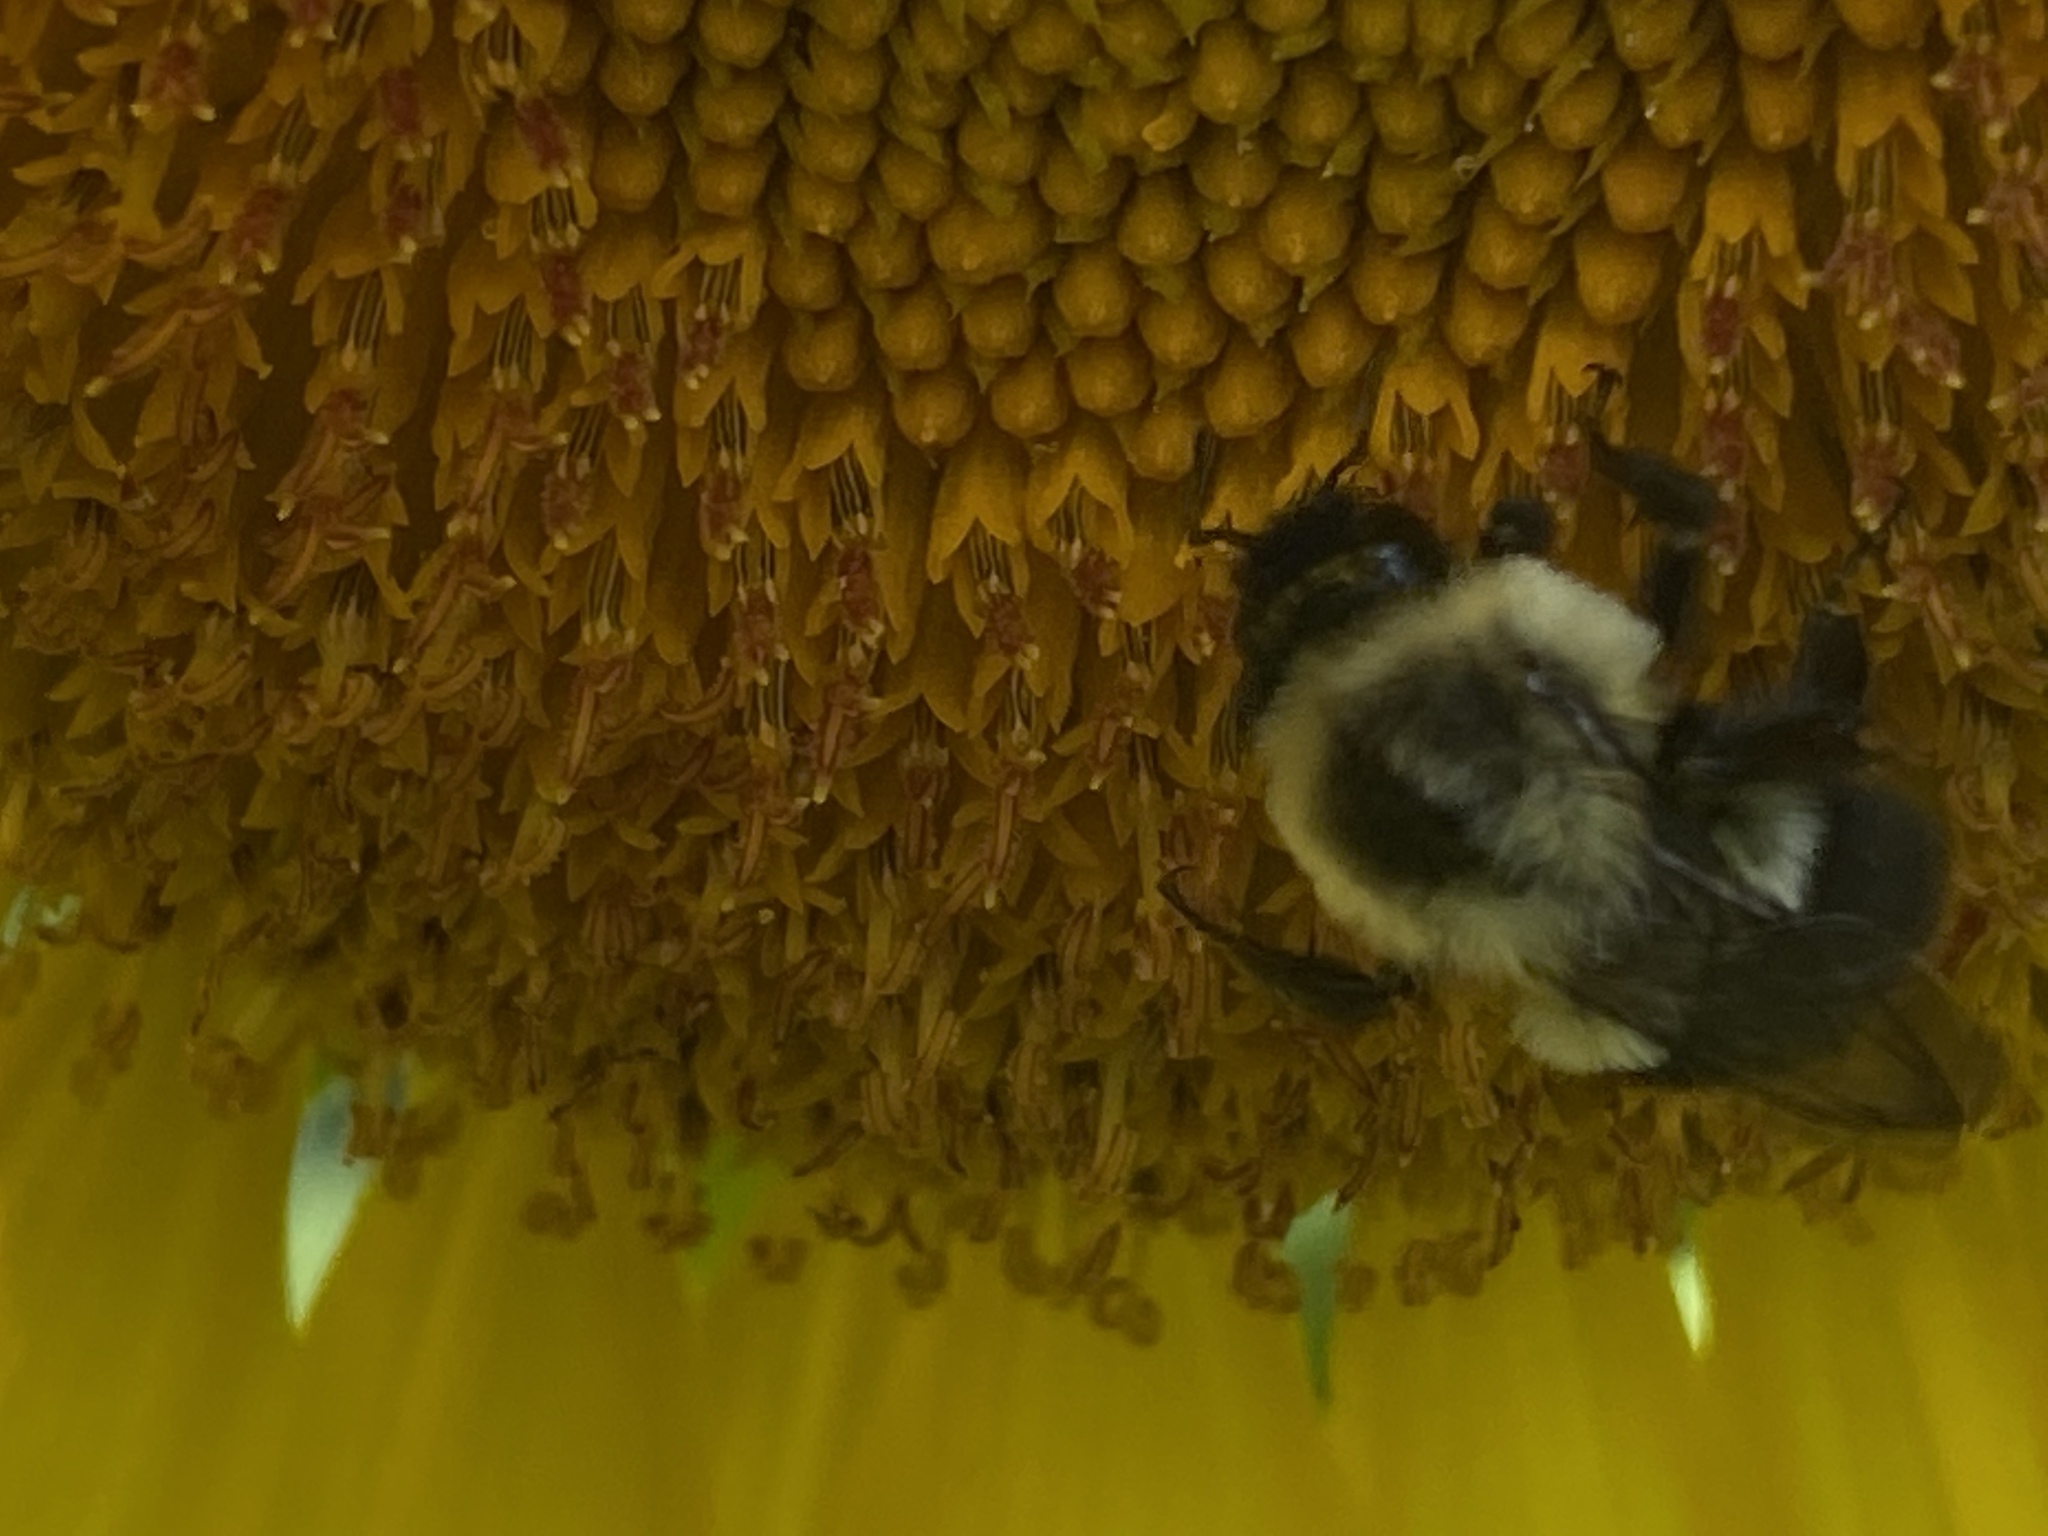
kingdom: Animalia
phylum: Arthropoda
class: Insecta
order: Hymenoptera
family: Apidae
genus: Bombus
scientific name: Bombus impatiens
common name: Common eastern bumble bee
